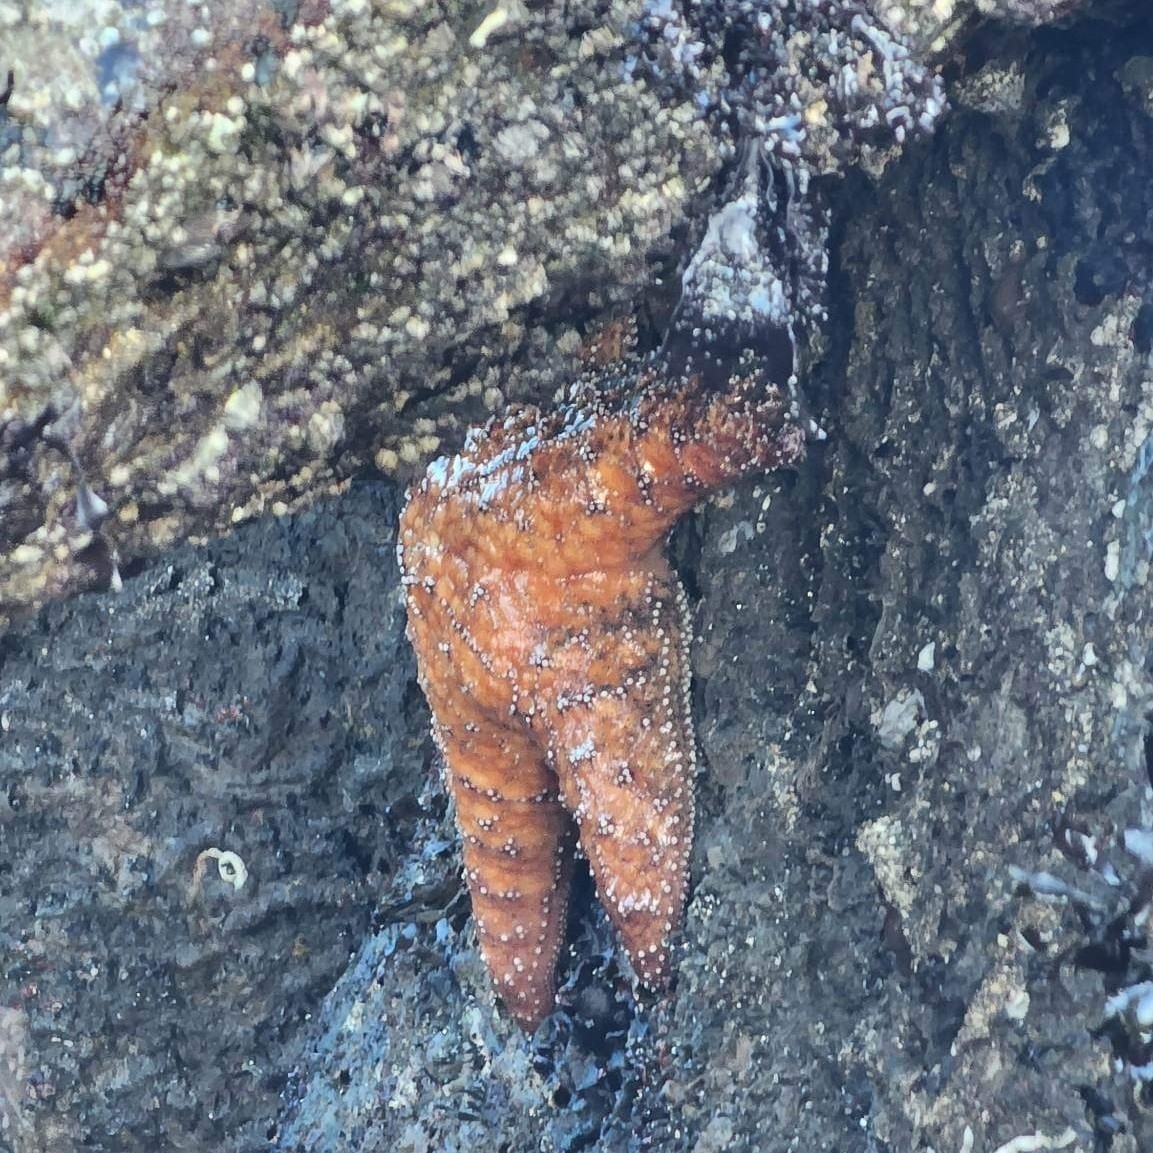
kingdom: Animalia
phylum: Echinodermata
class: Asteroidea
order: Forcipulatida
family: Asteriidae
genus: Pisaster
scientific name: Pisaster ochraceus
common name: Ochre stars
